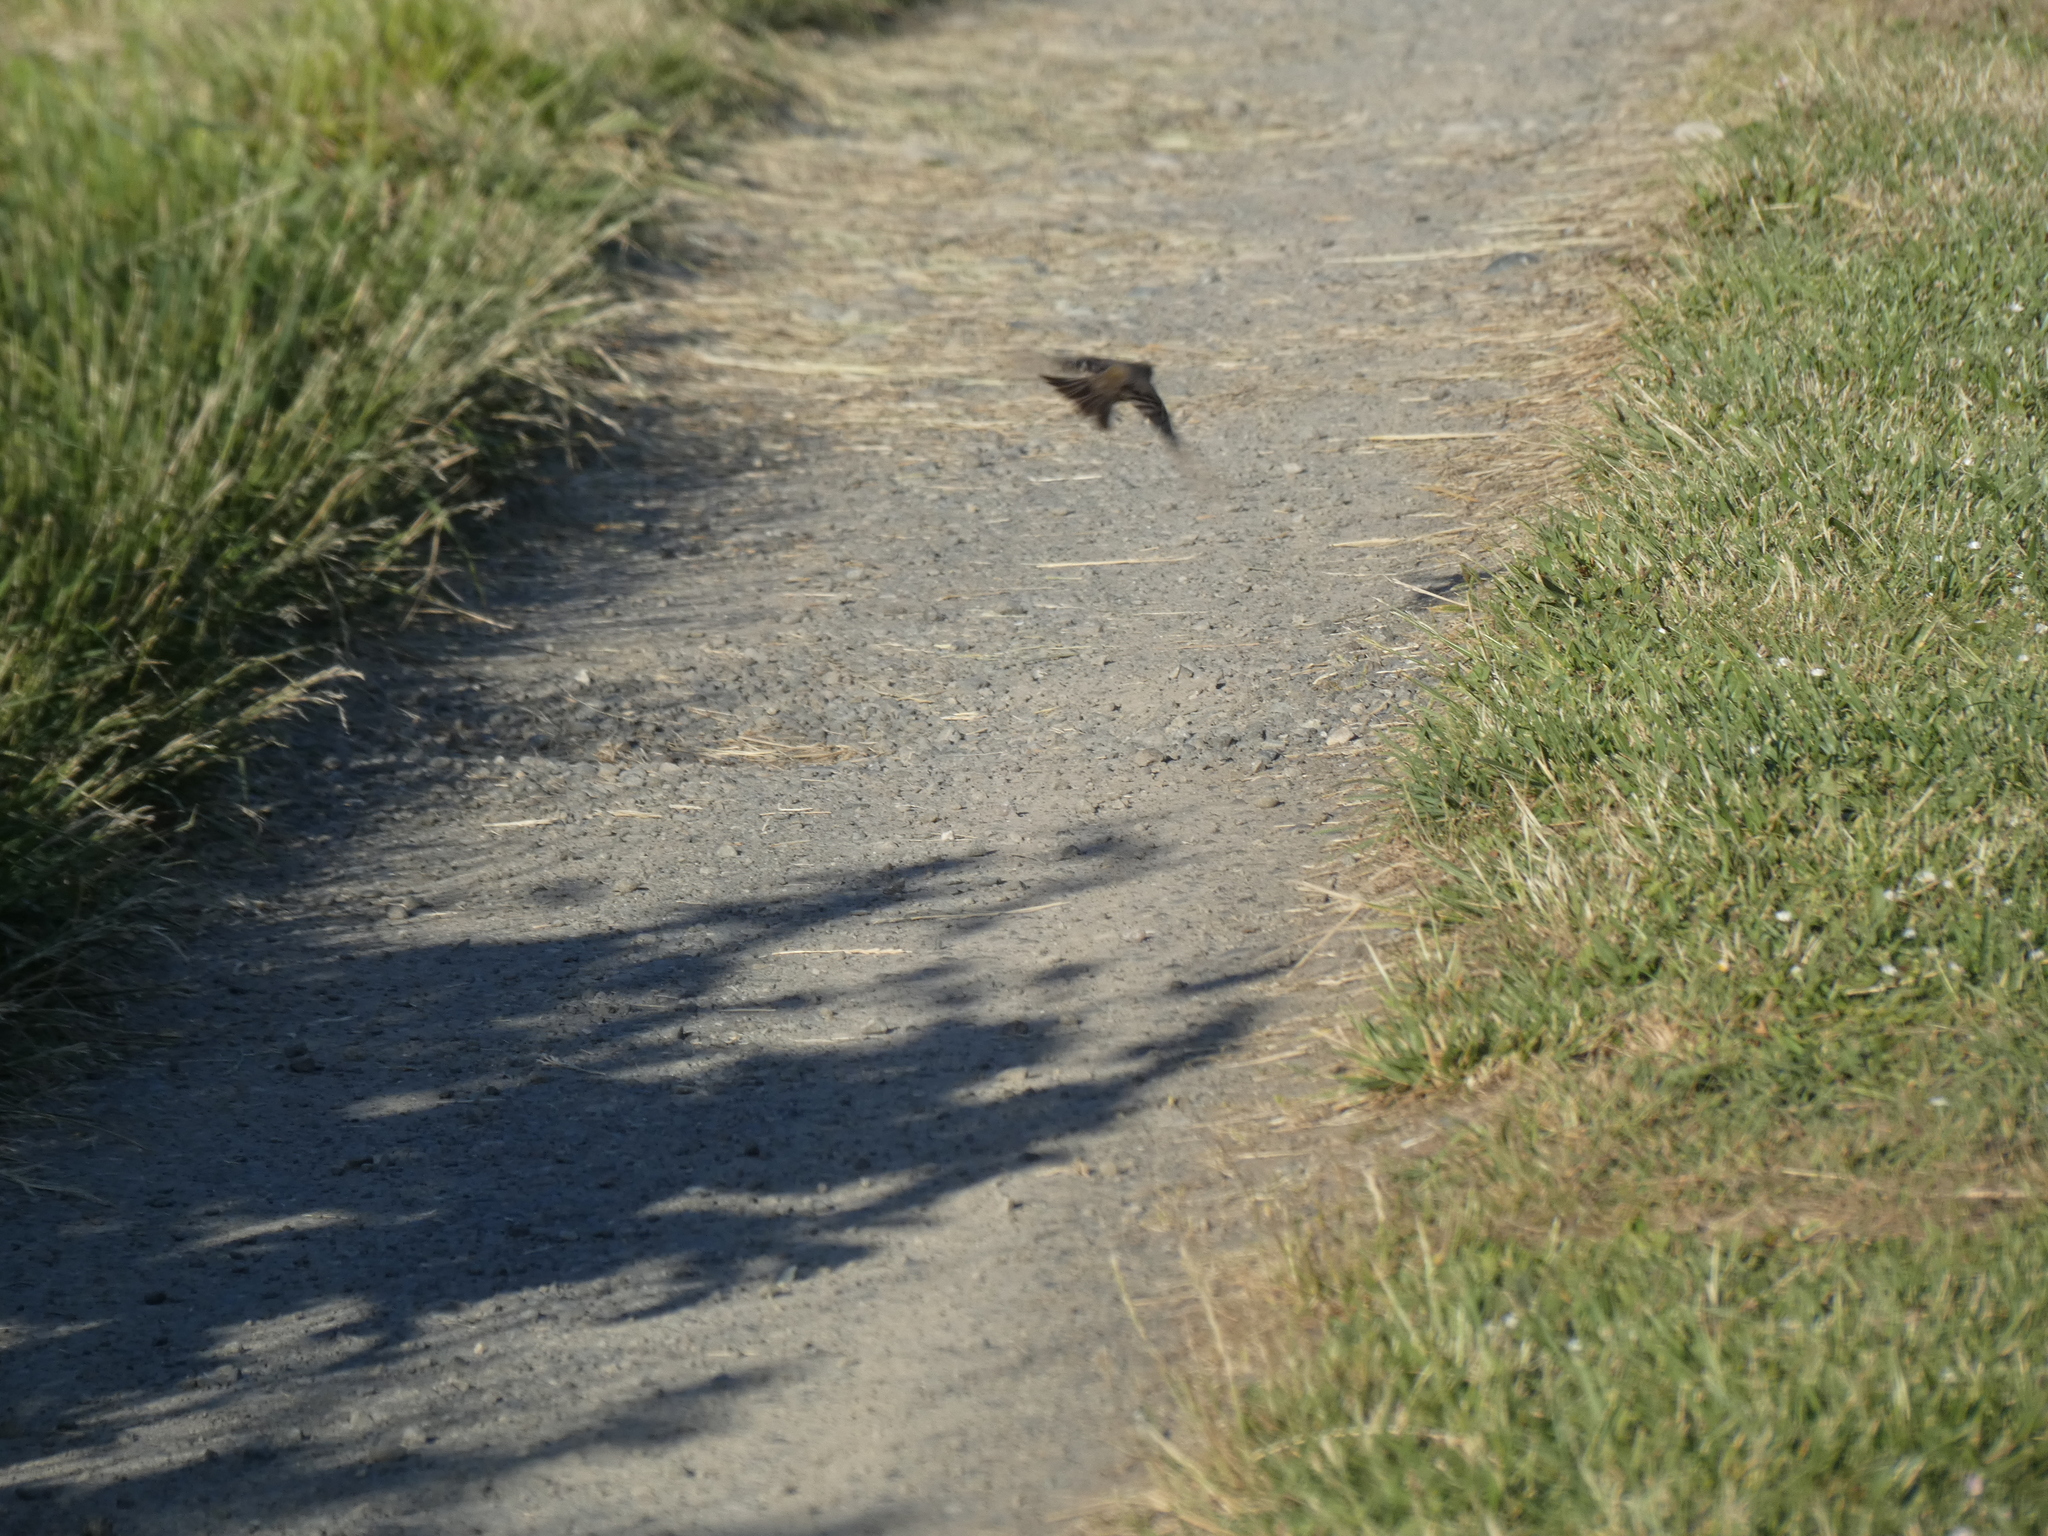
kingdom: Animalia
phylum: Chordata
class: Aves
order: Passeriformes
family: Turdidae
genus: Turdus
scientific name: Turdus migratorius
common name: American robin
